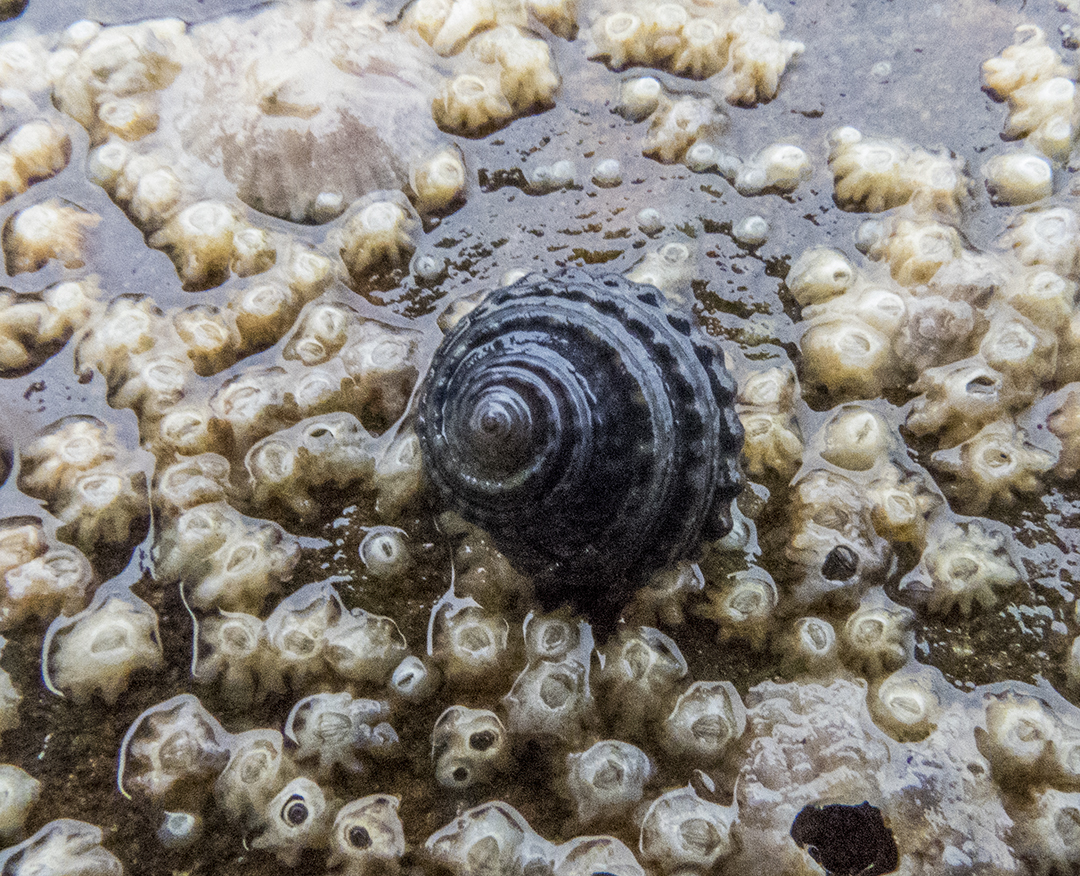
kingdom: Animalia
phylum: Mollusca
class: Gastropoda
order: Trochida
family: Trochidae
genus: Diloma
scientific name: Diloma bicanaliculatum
